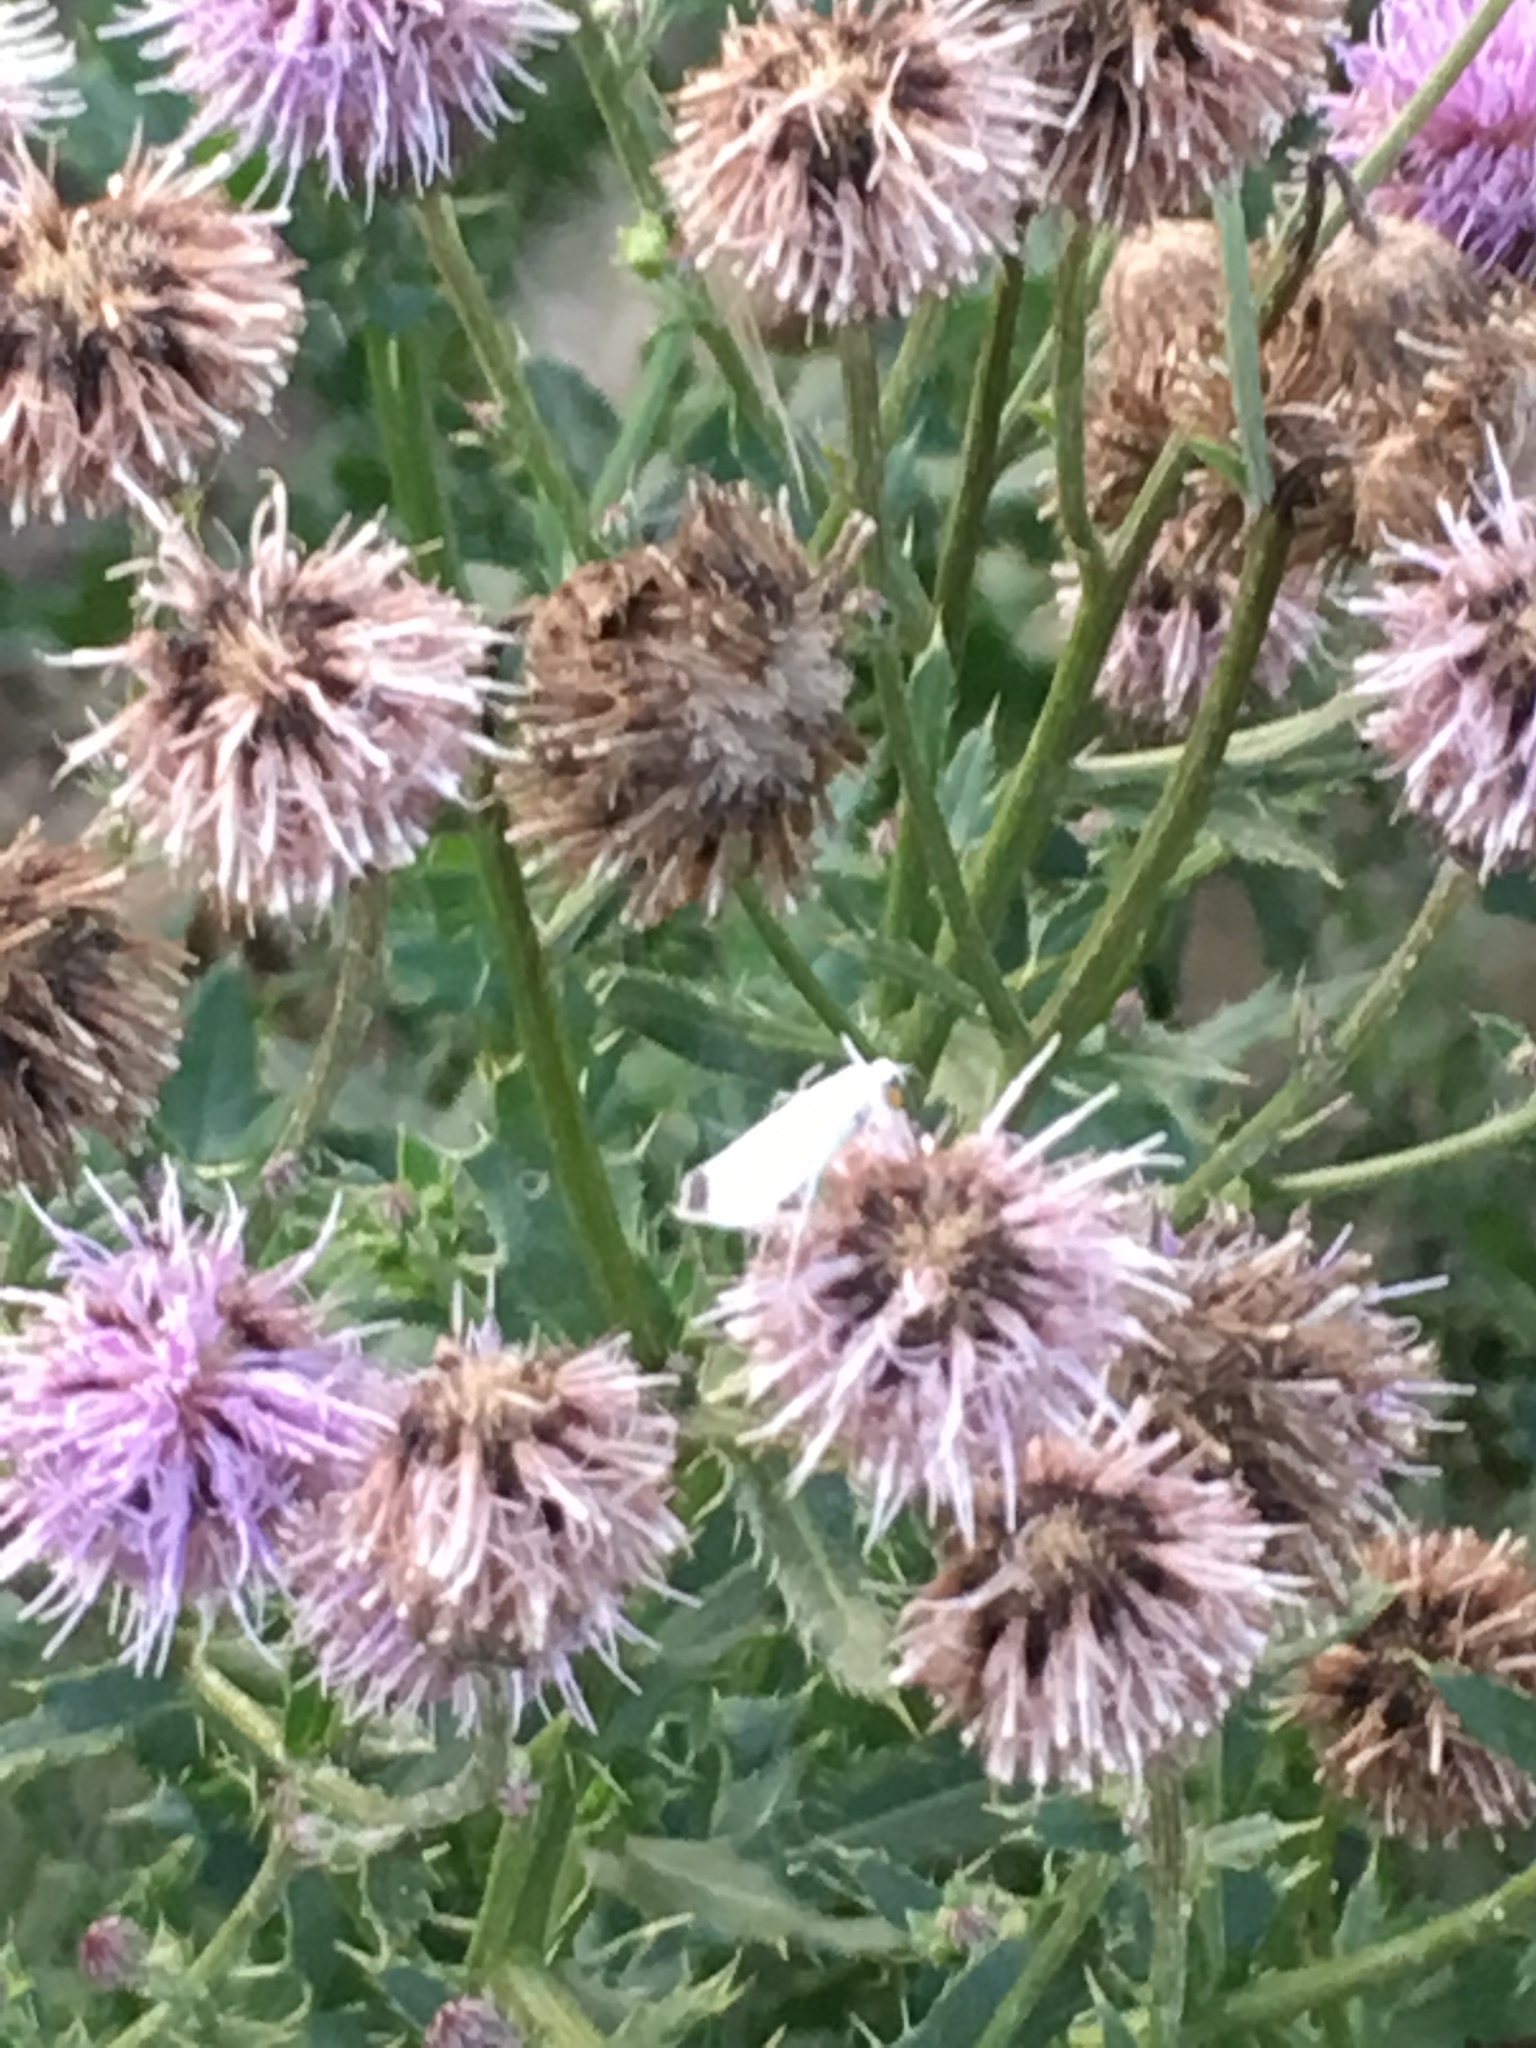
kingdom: Plantae
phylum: Tracheophyta
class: Magnoliopsida
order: Asterales
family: Asteraceae
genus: Cirsium
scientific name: Cirsium arvense
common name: Creeping thistle
